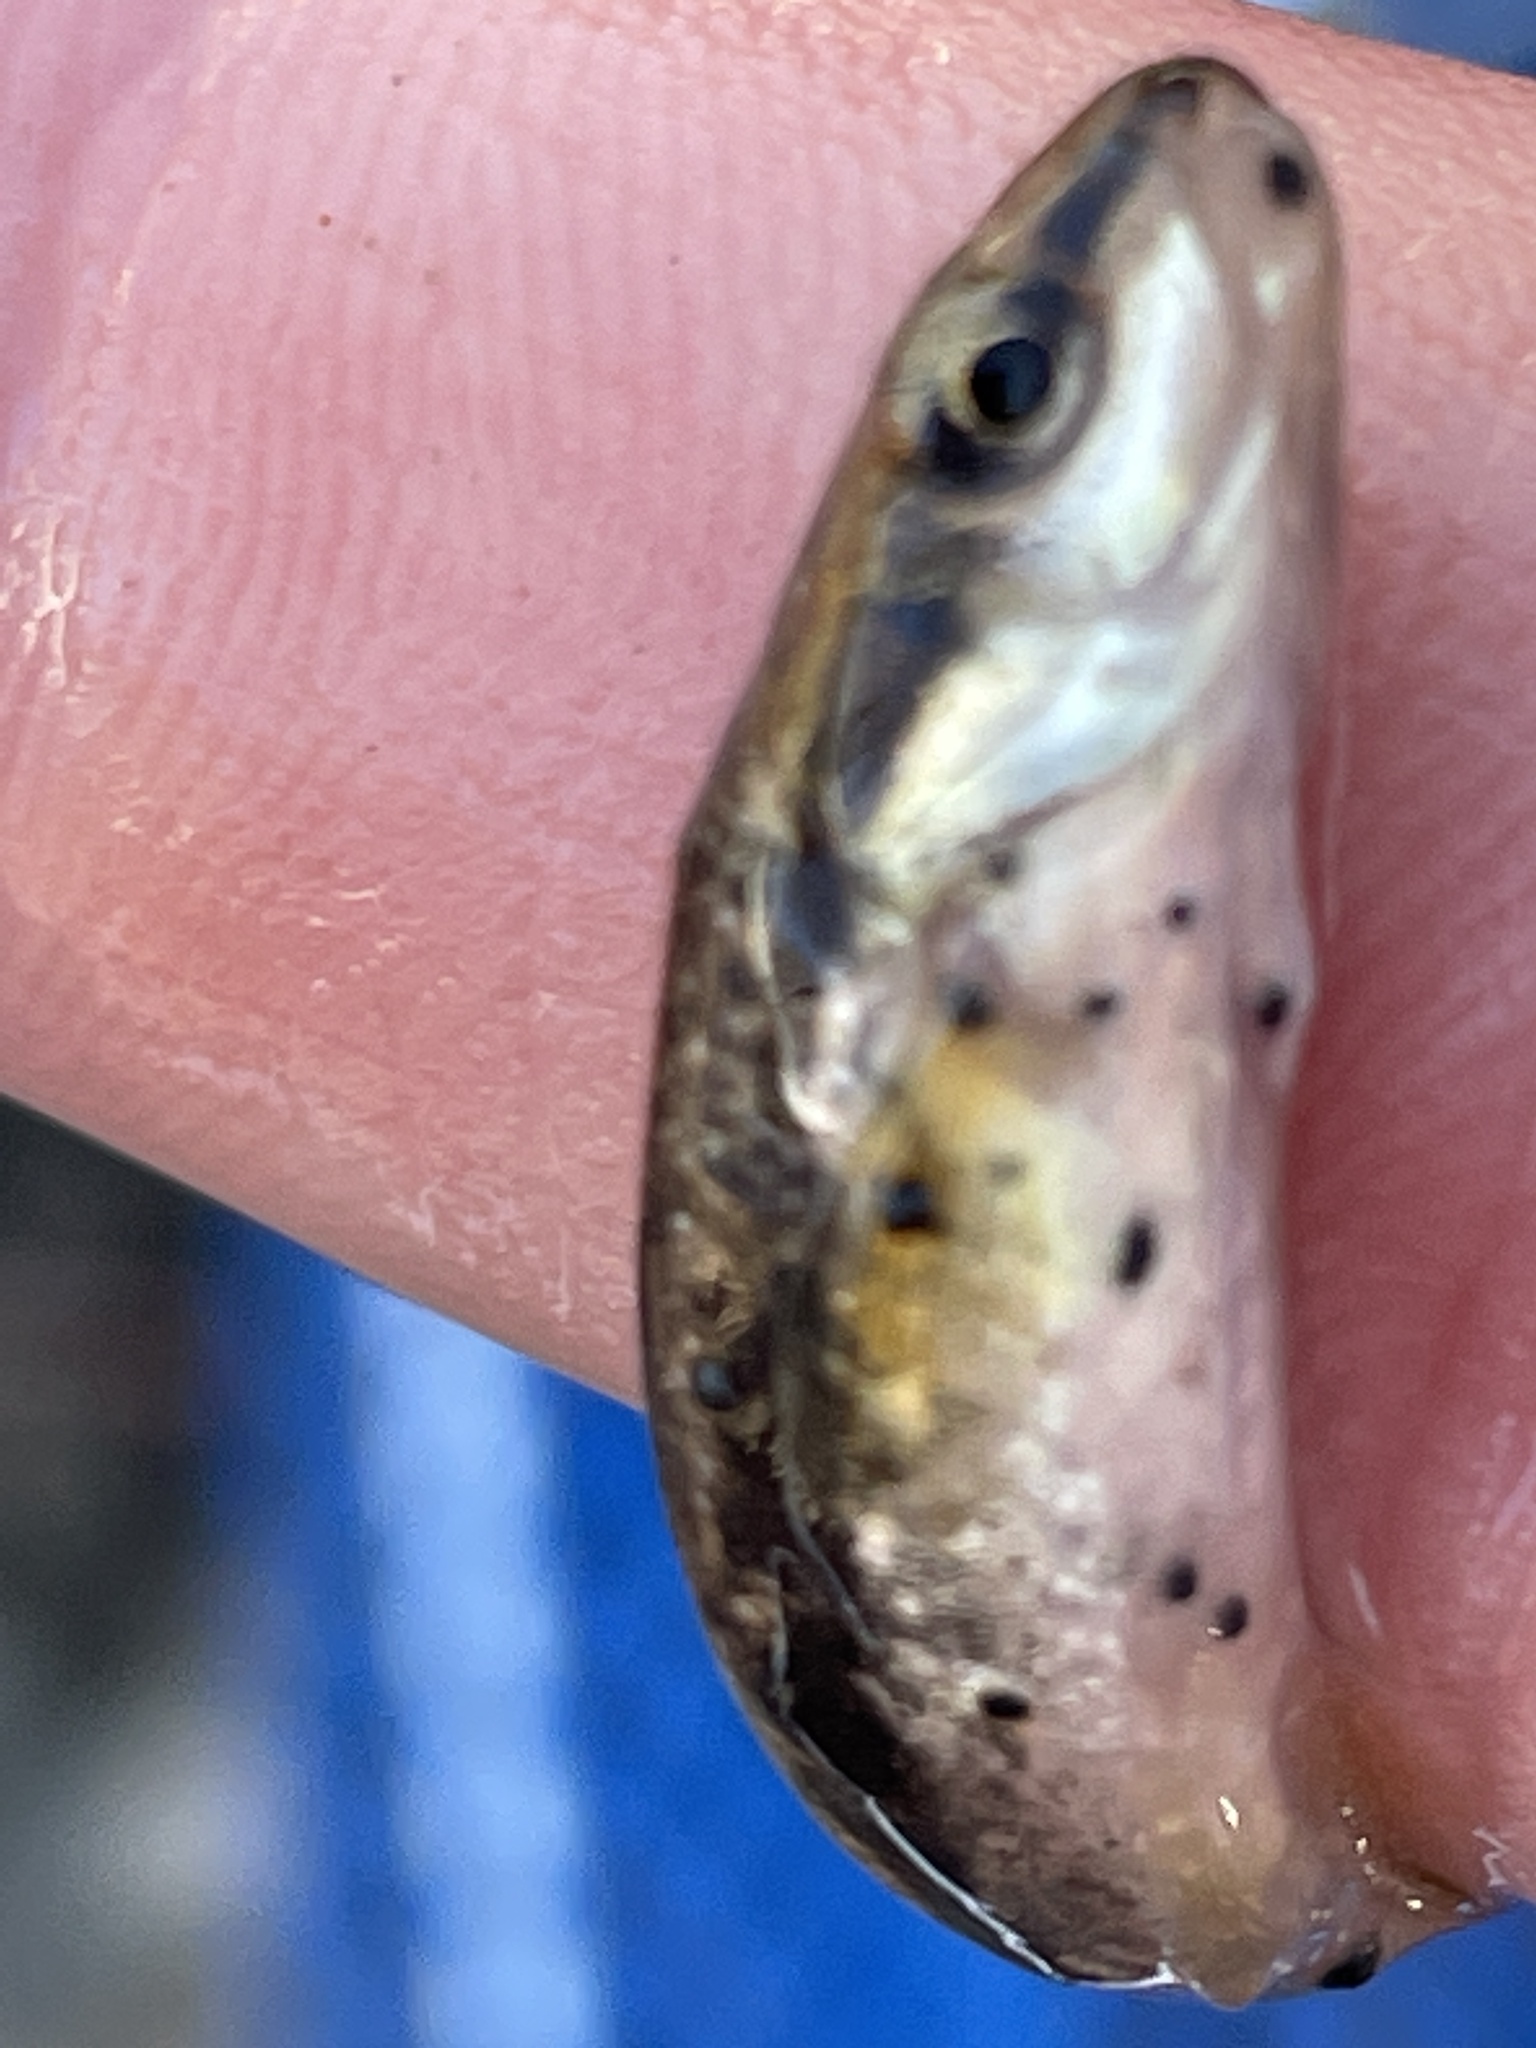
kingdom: Animalia
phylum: Platyhelminthes
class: Trematoda
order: Diplostomida
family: Diplostomidae
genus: Neascus
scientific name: Neascus
